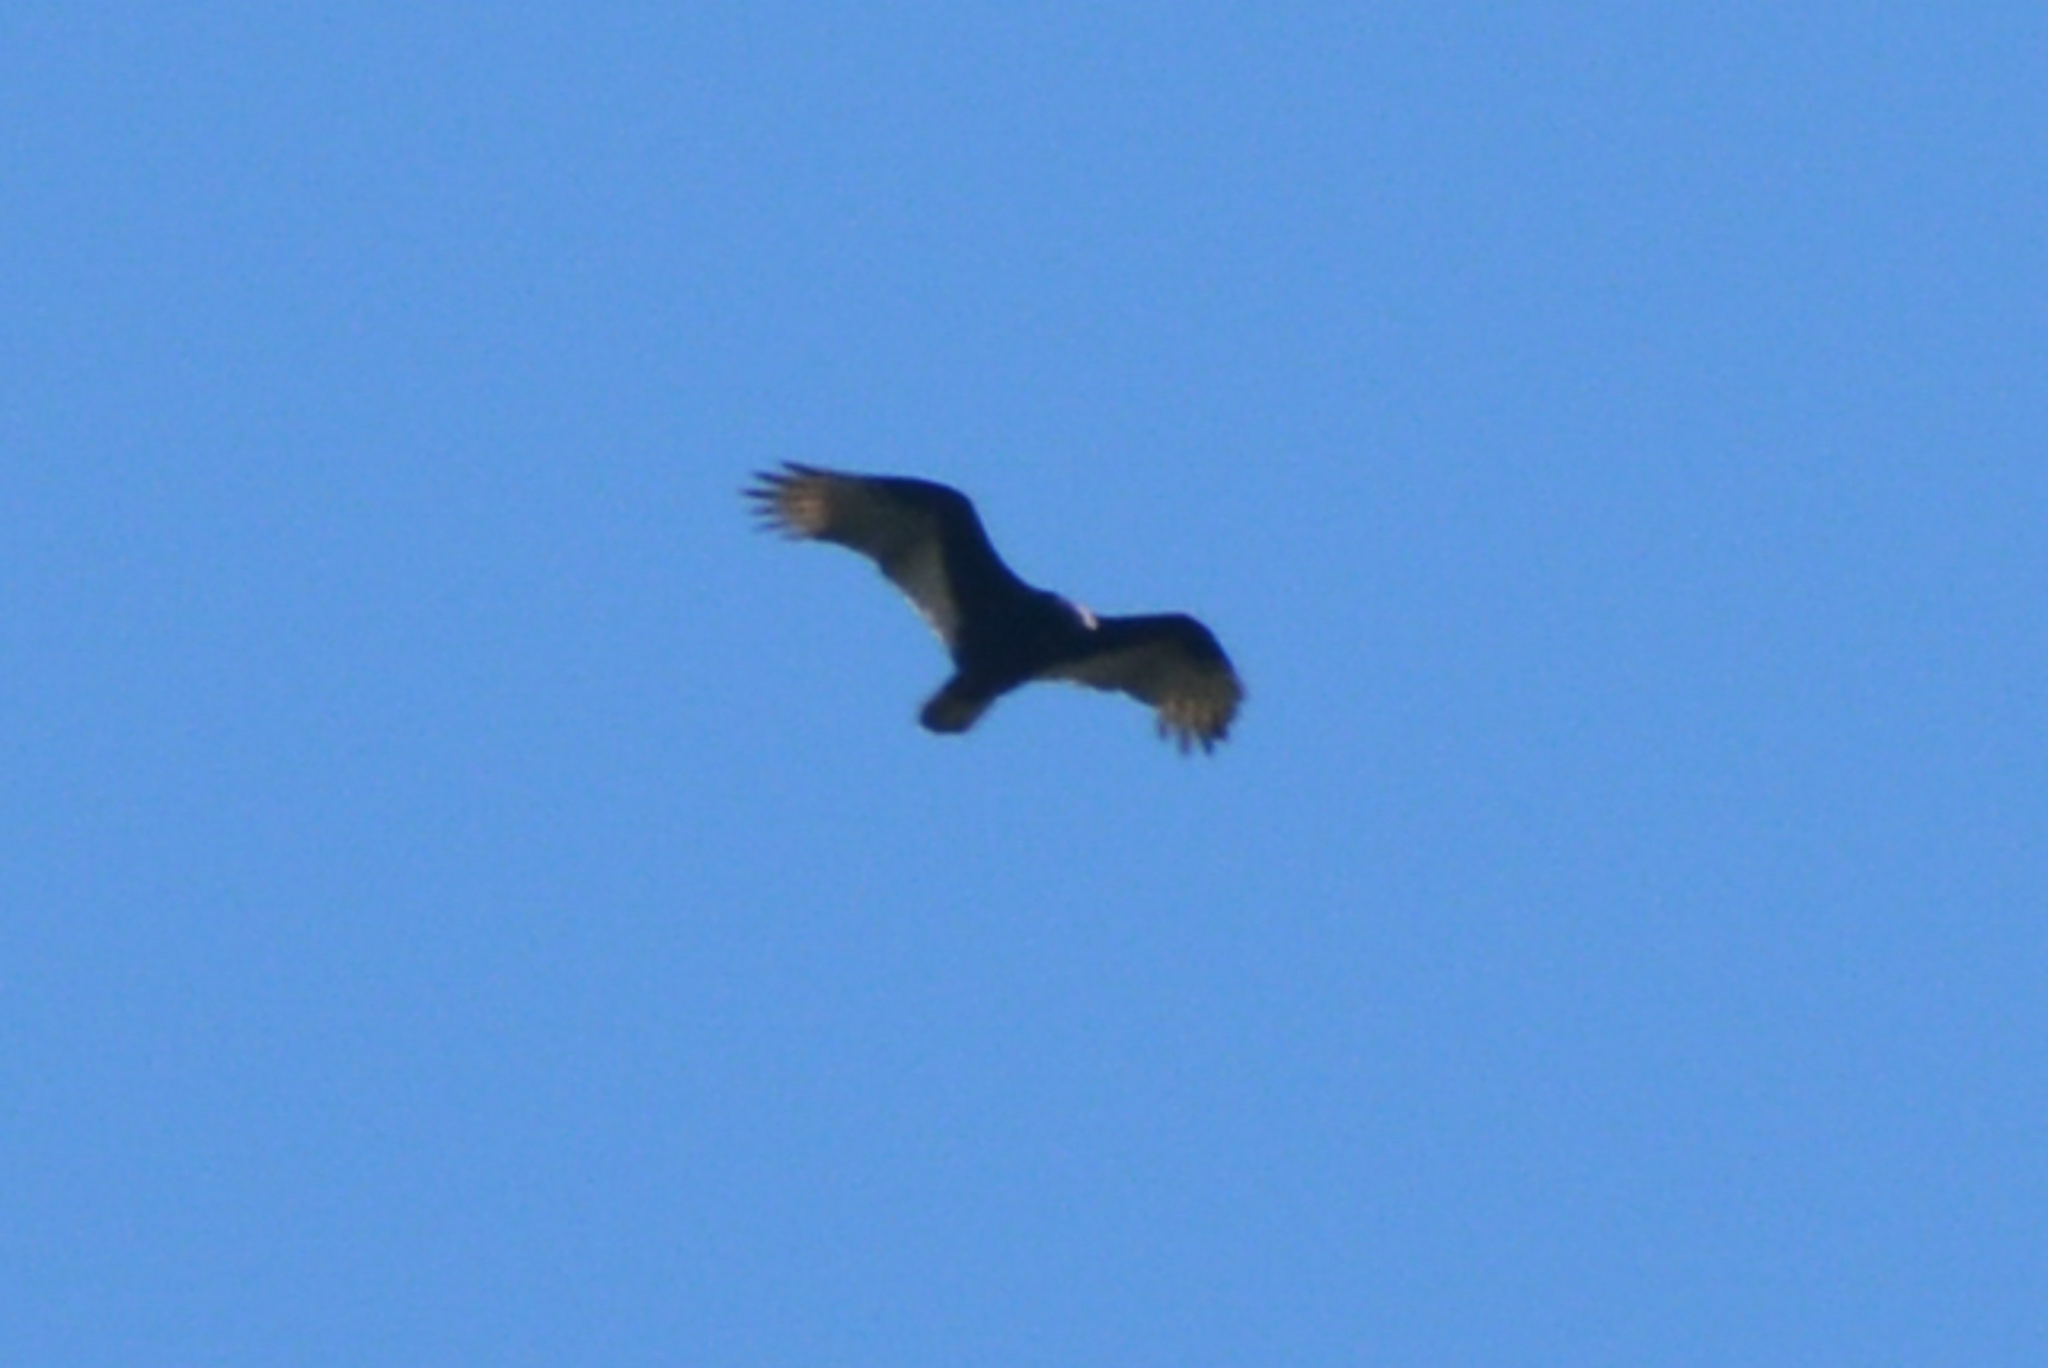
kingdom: Animalia
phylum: Chordata
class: Aves
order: Accipitriformes
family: Cathartidae
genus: Cathartes
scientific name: Cathartes aura
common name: Turkey vulture
